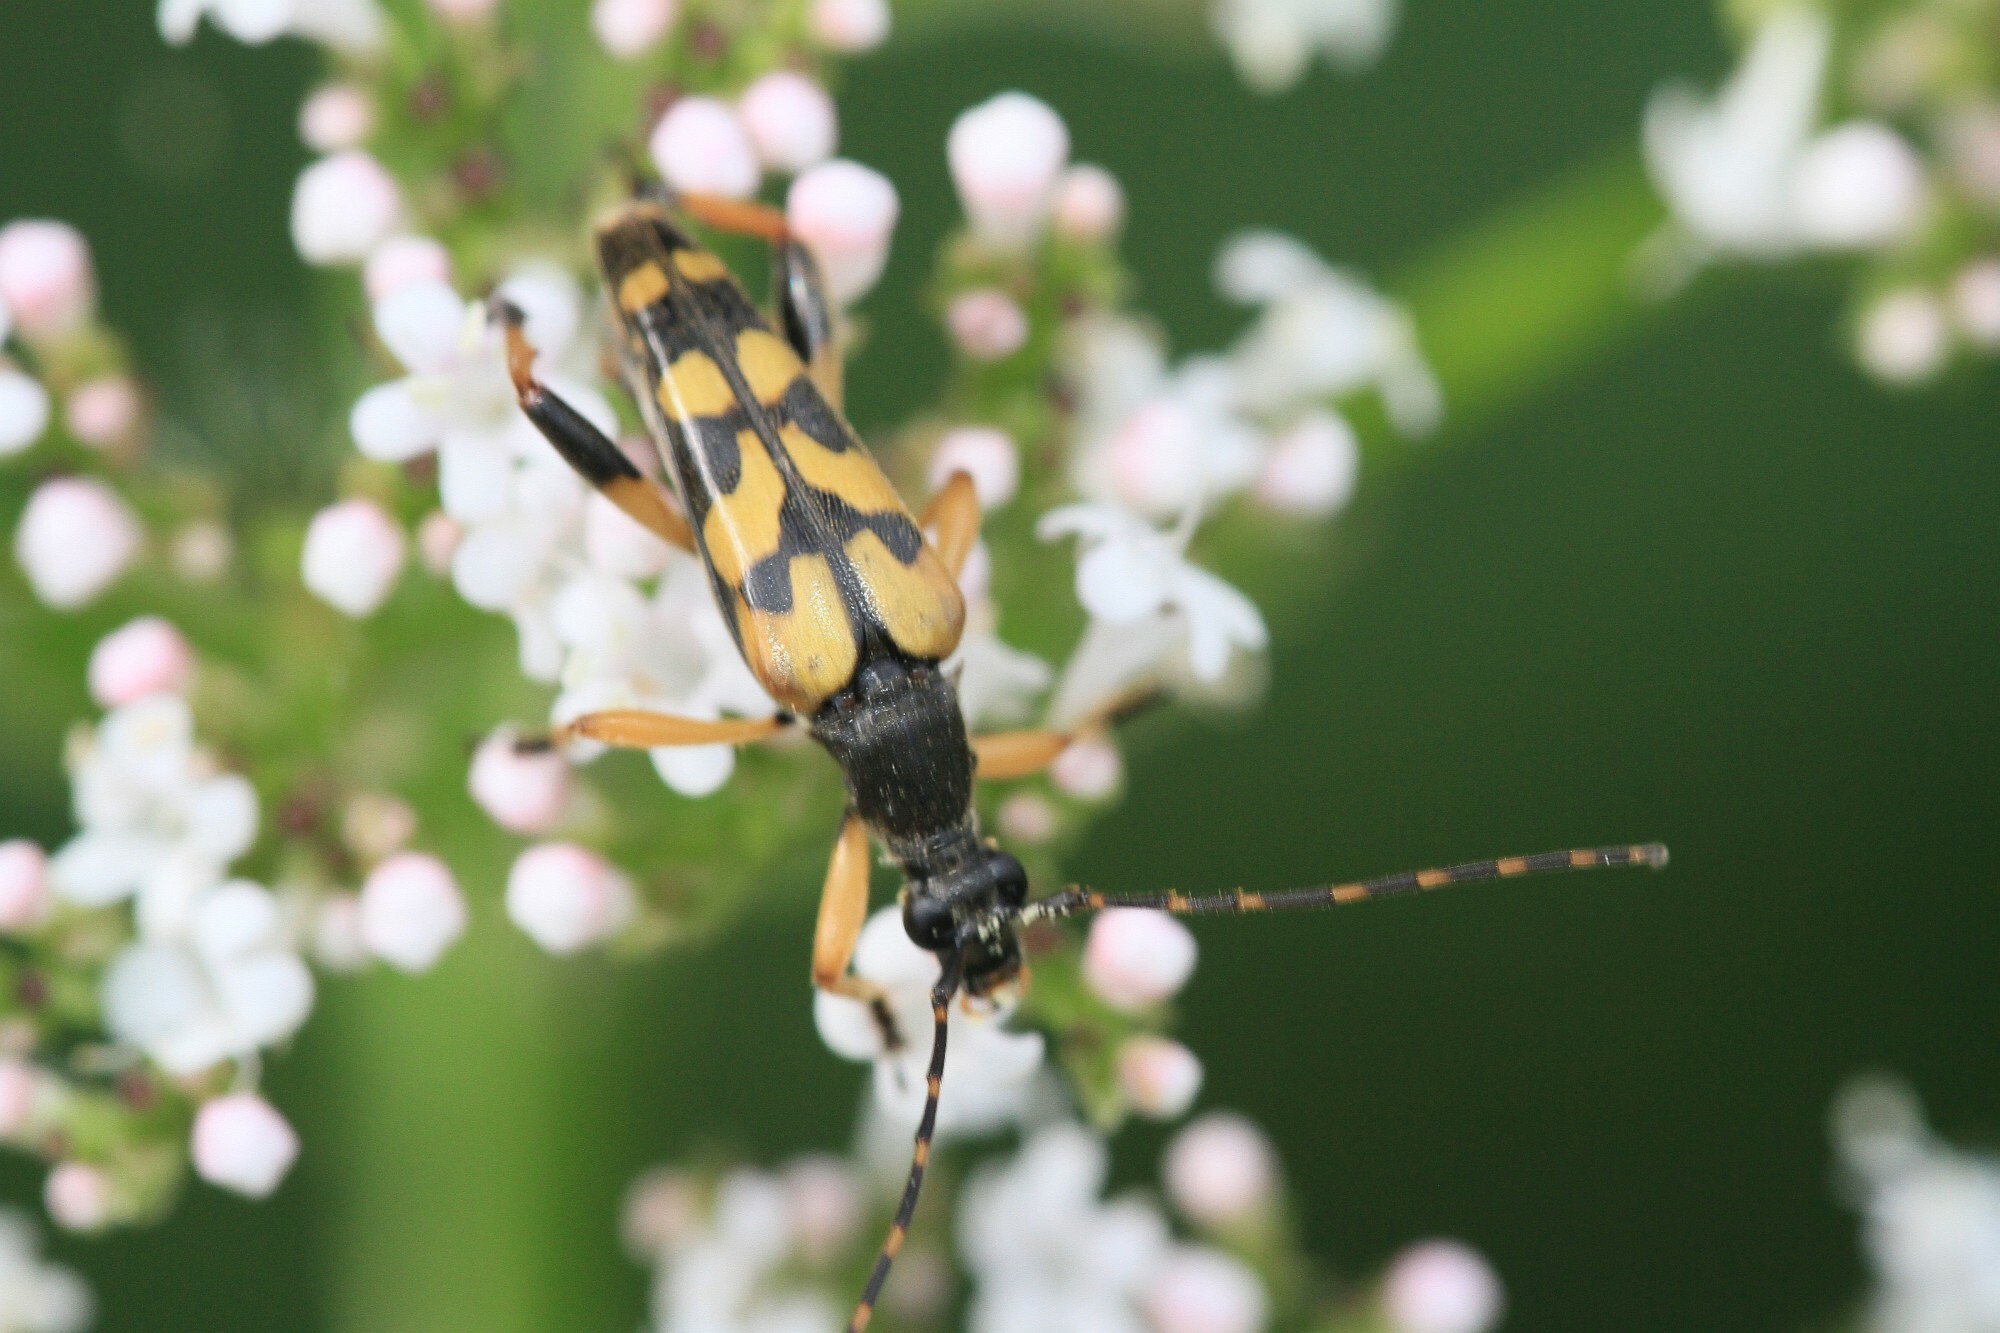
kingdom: Animalia
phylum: Arthropoda
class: Insecta
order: Coleoptera
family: Cerambycidae
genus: Rutpela
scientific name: Rutpela maculata
